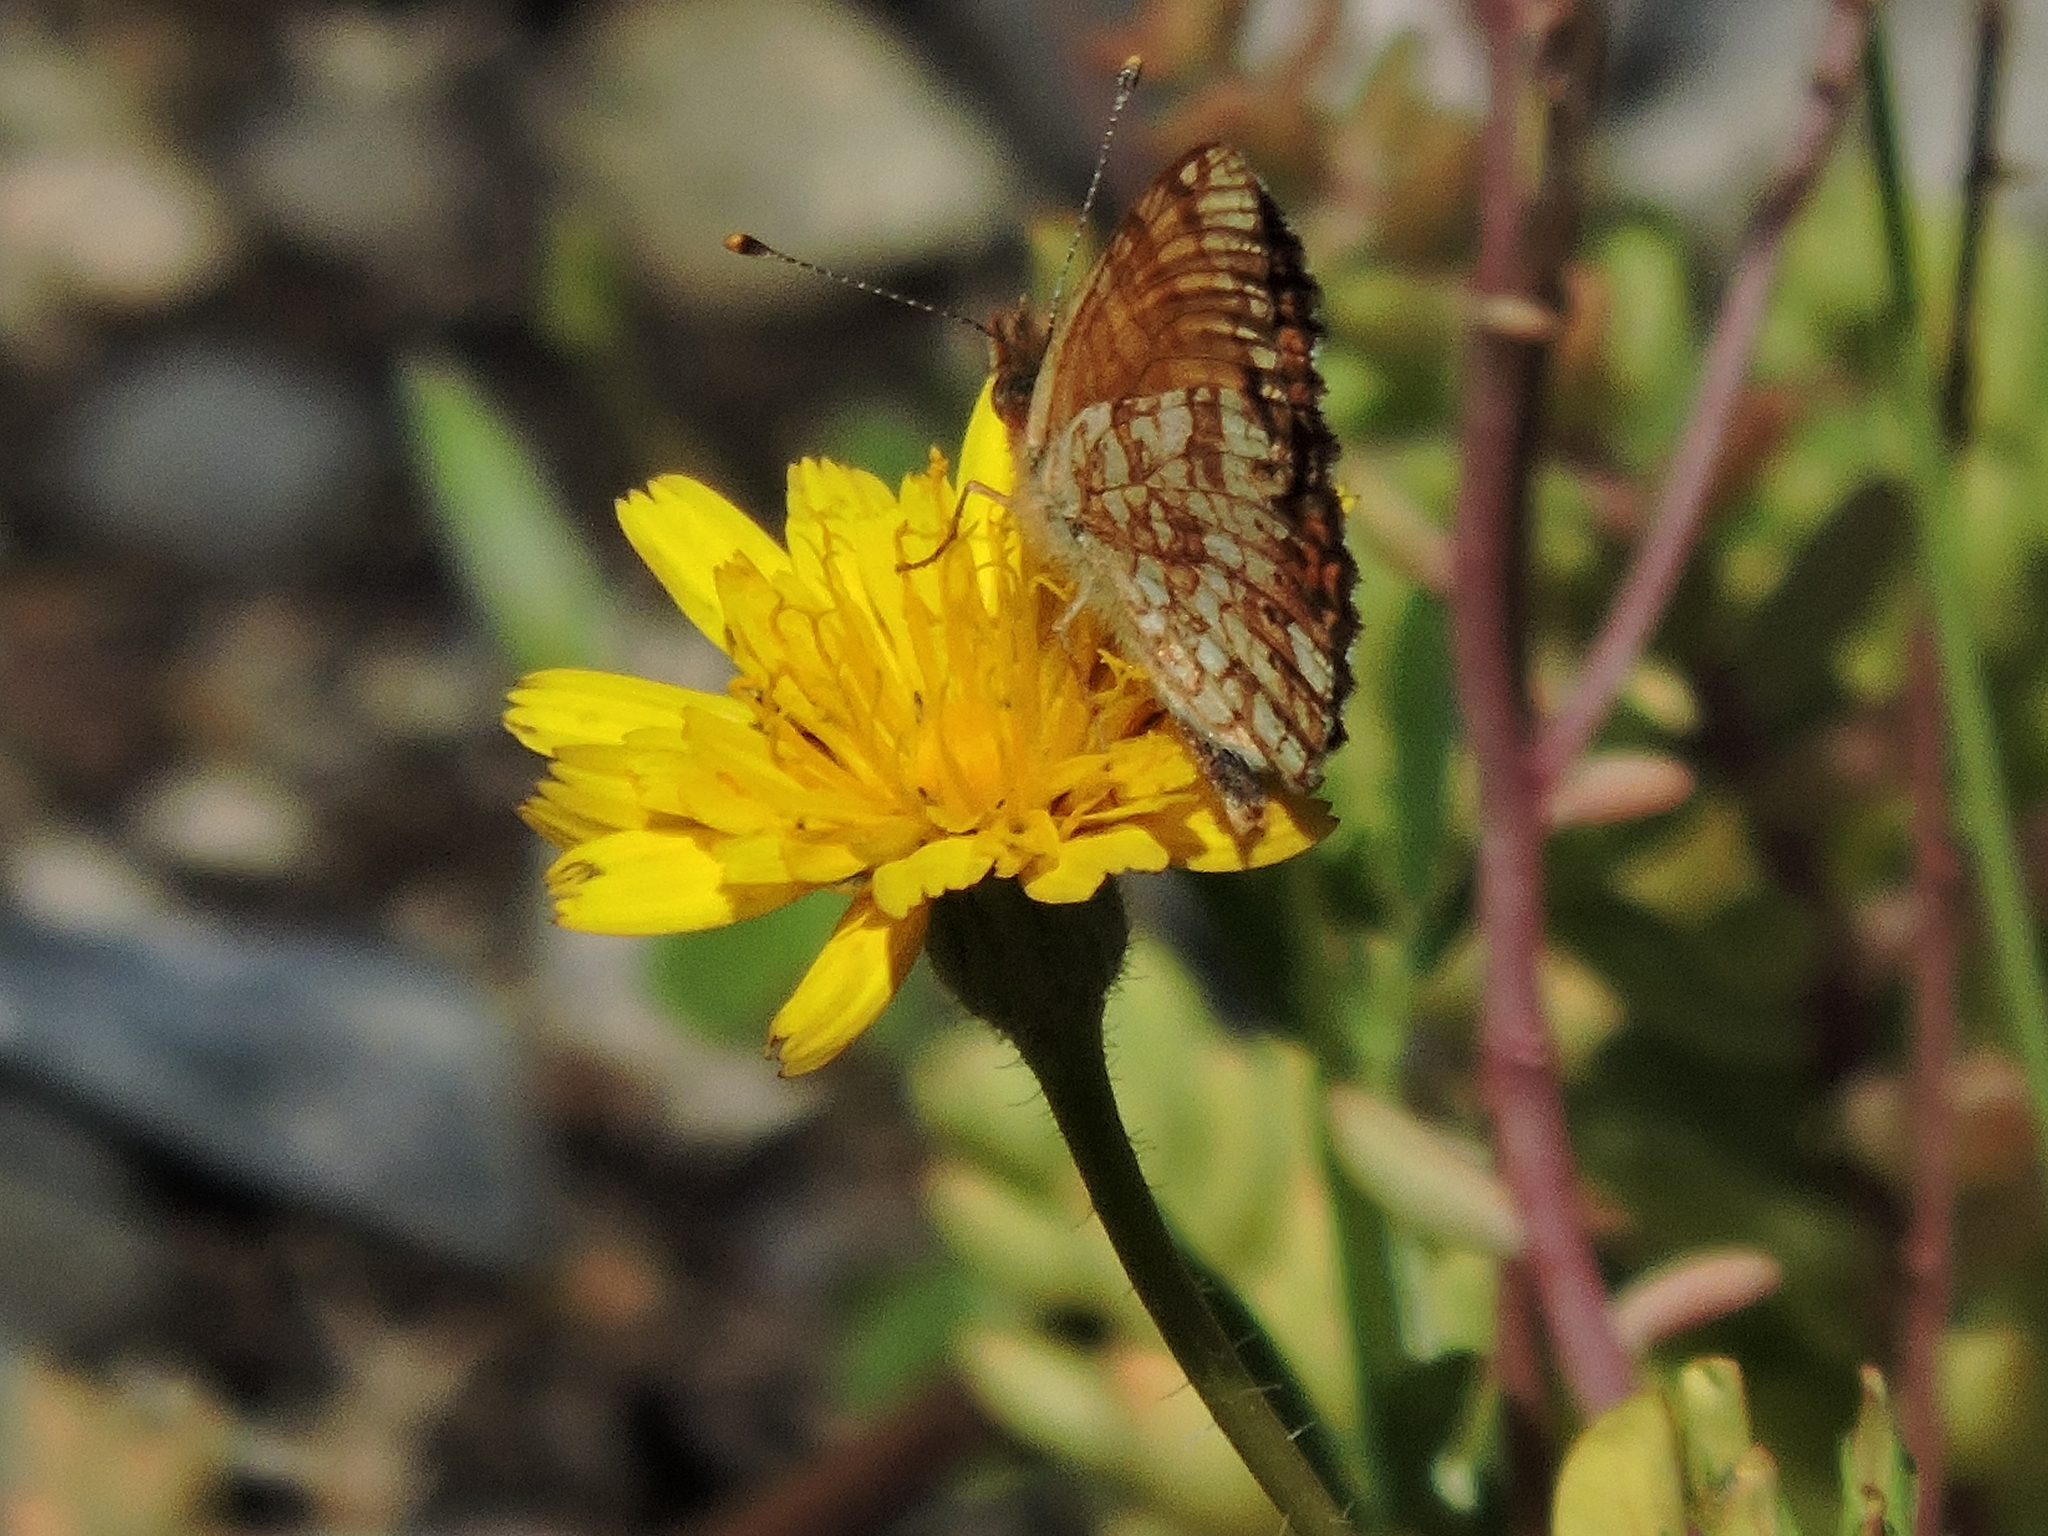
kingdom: Animalia
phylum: Arthropoda
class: Insecta
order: Lepidoptera
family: Nymphalidae
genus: Eresia
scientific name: Eresia aveyrona
